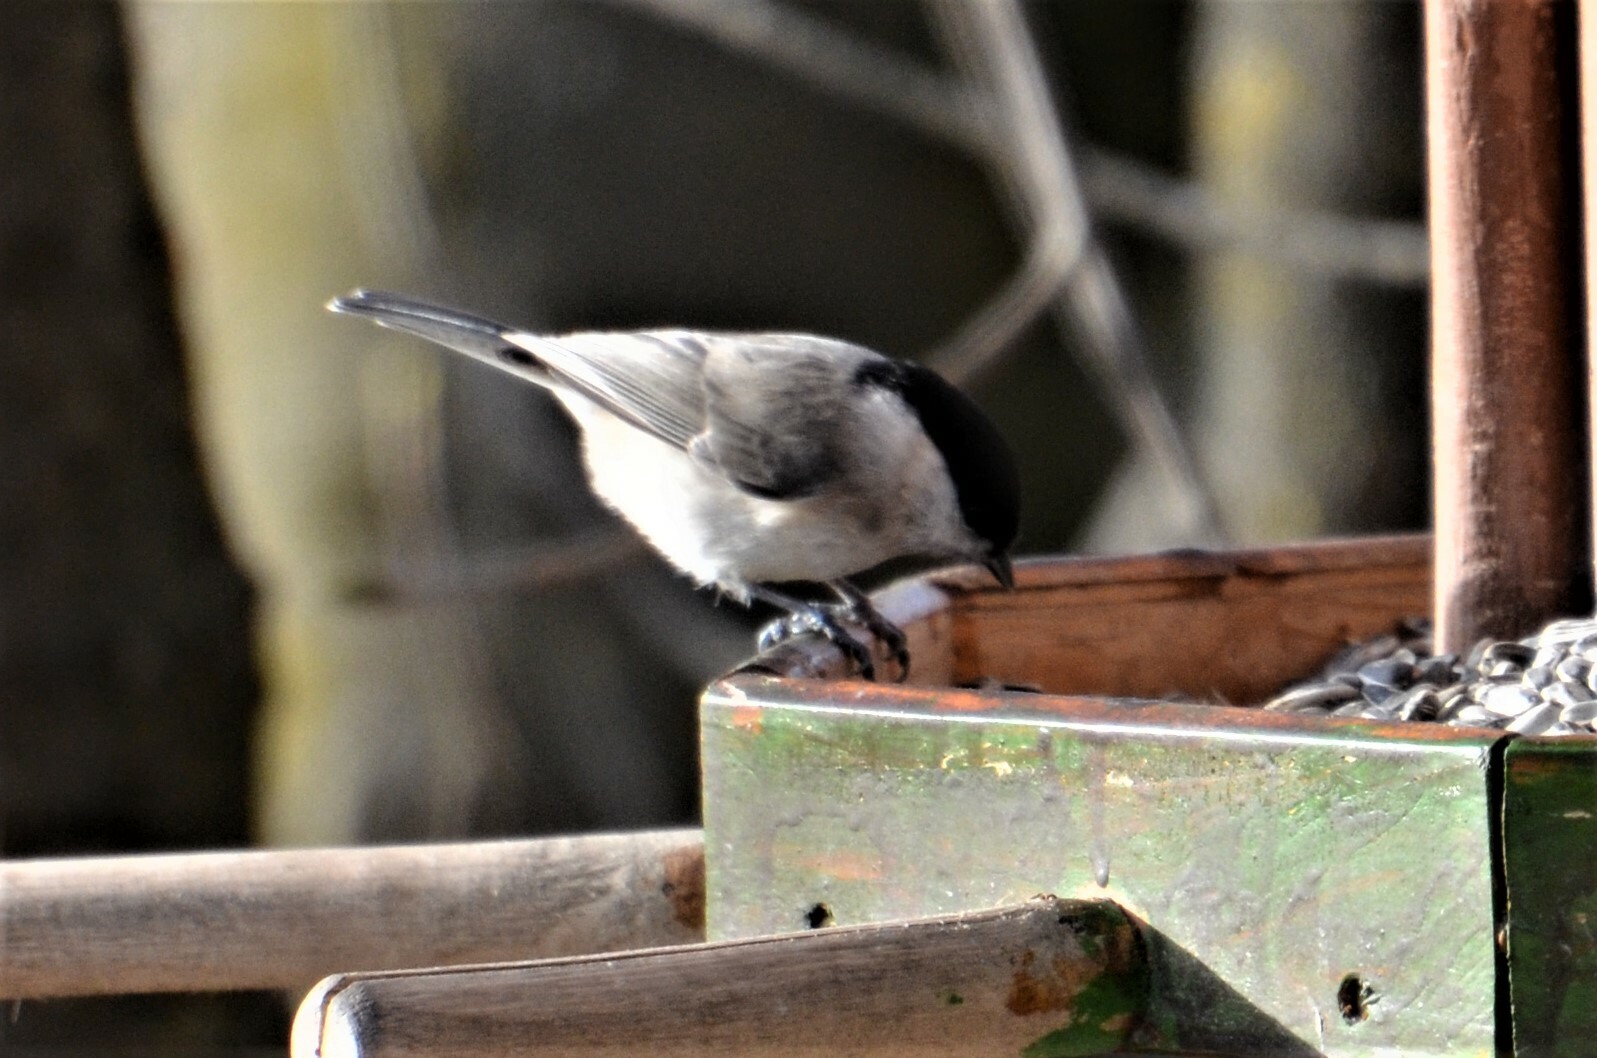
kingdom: Animalia
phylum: Chordata
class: Aves
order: Passeriformes
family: Paridae
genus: Poecile
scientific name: Poecile palustris
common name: Marsh tit
